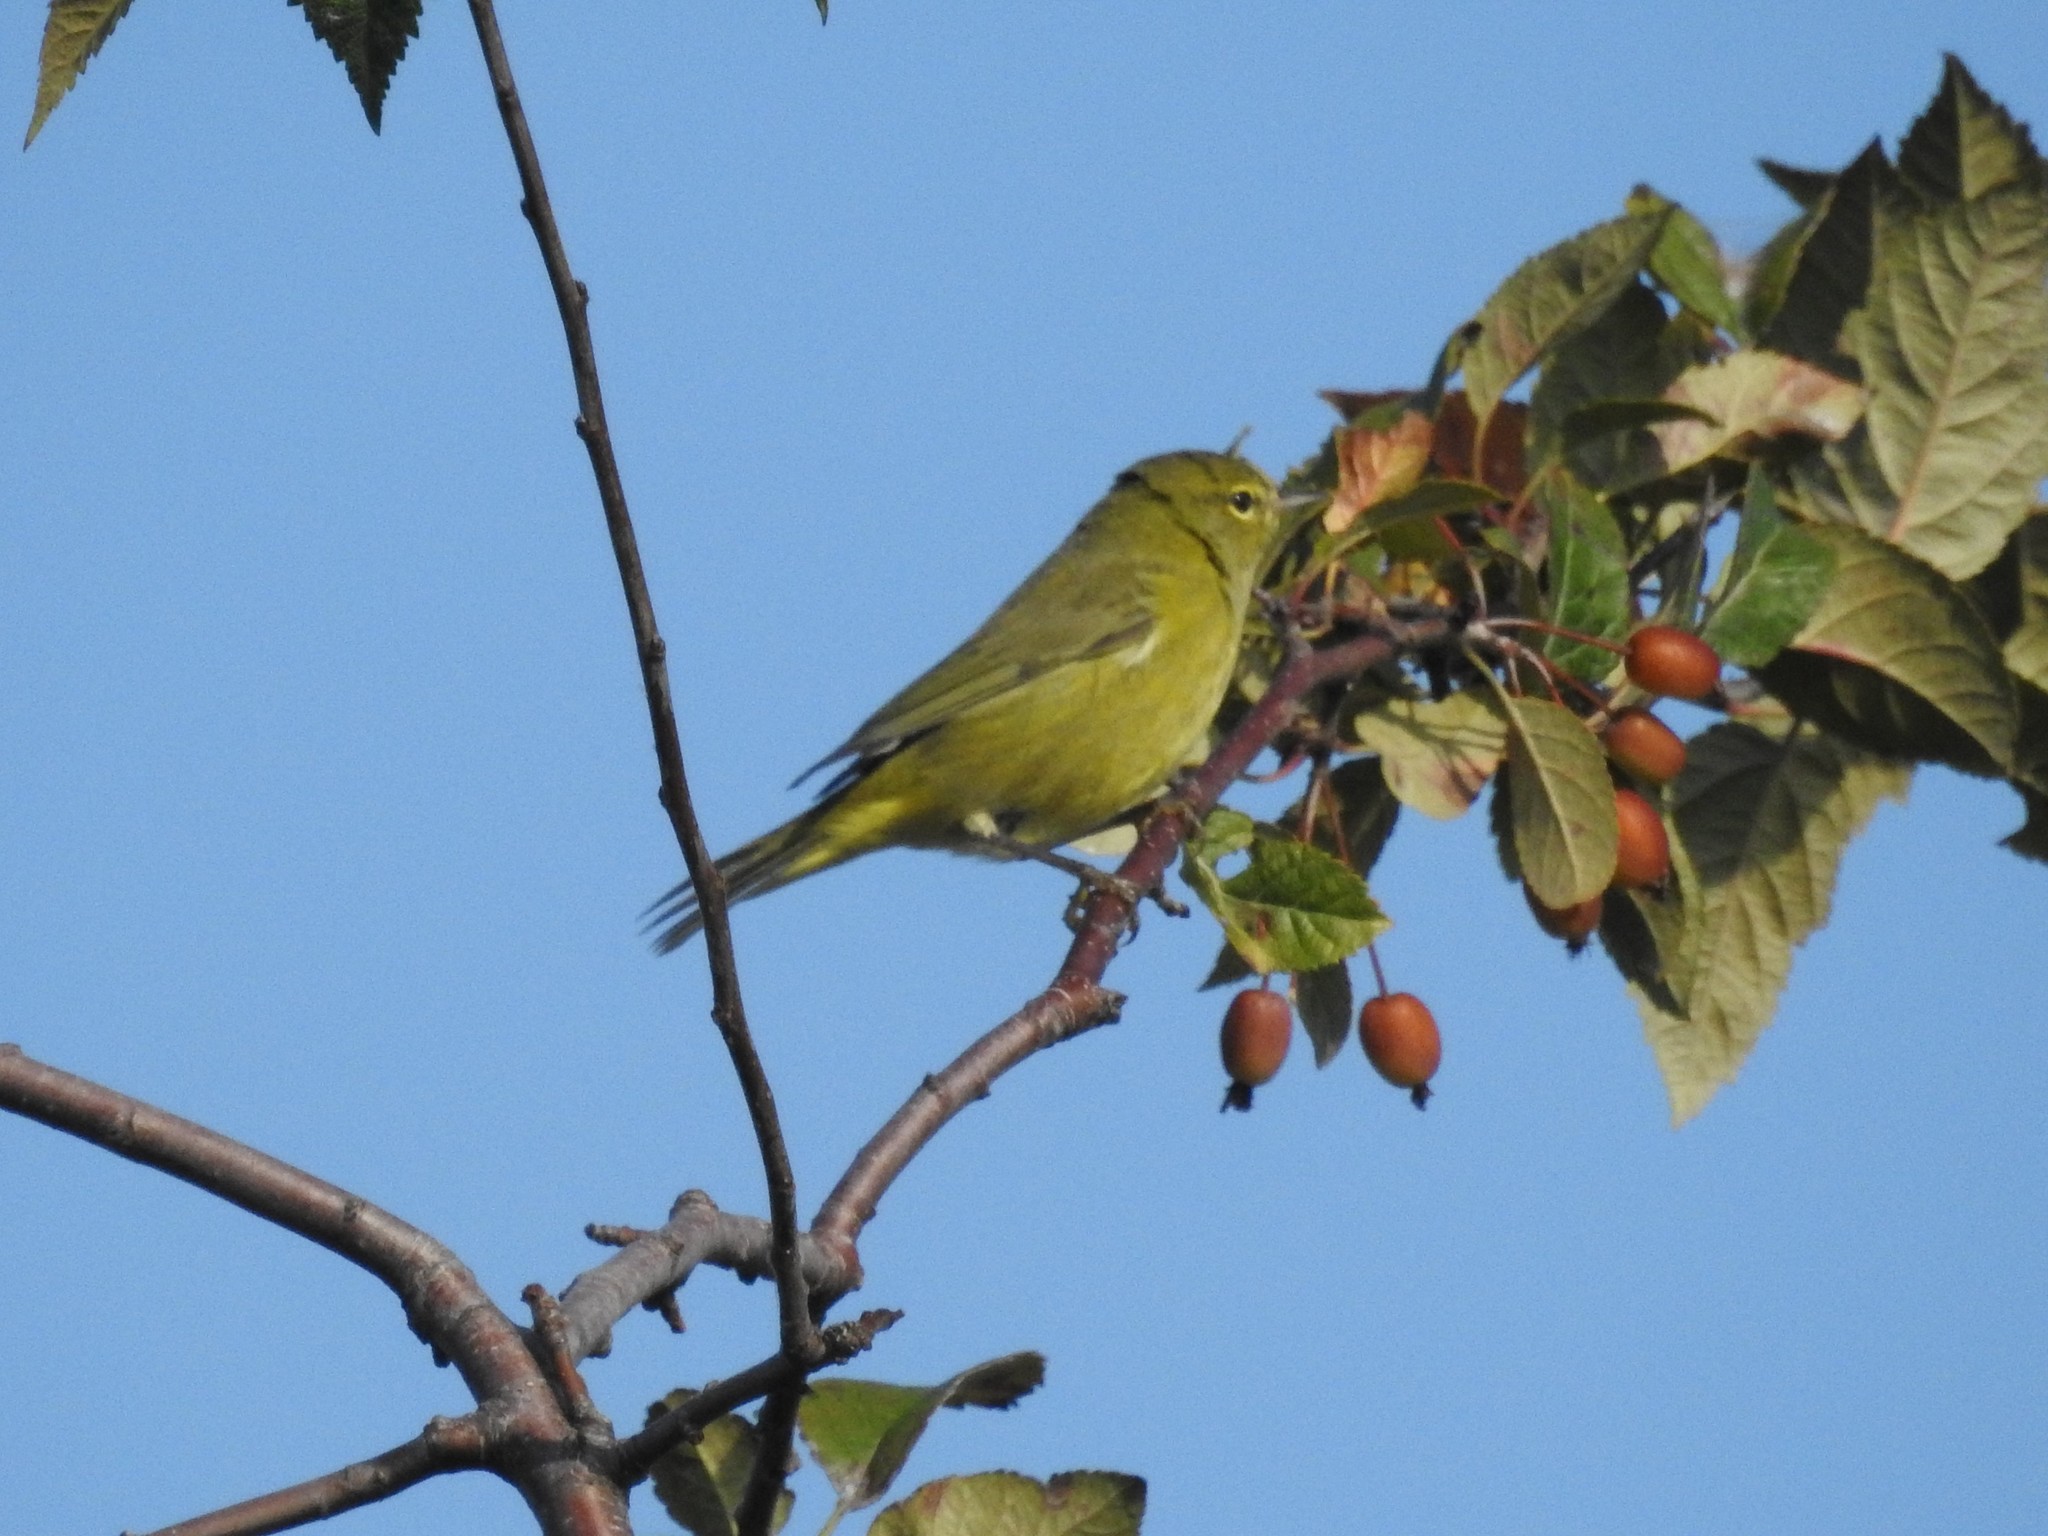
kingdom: Animalia
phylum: Chordata
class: Aves
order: Passeriformes
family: Parulidae
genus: Leiothlypis
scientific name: Leiothlypis celata
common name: Orange-crowned warbler
